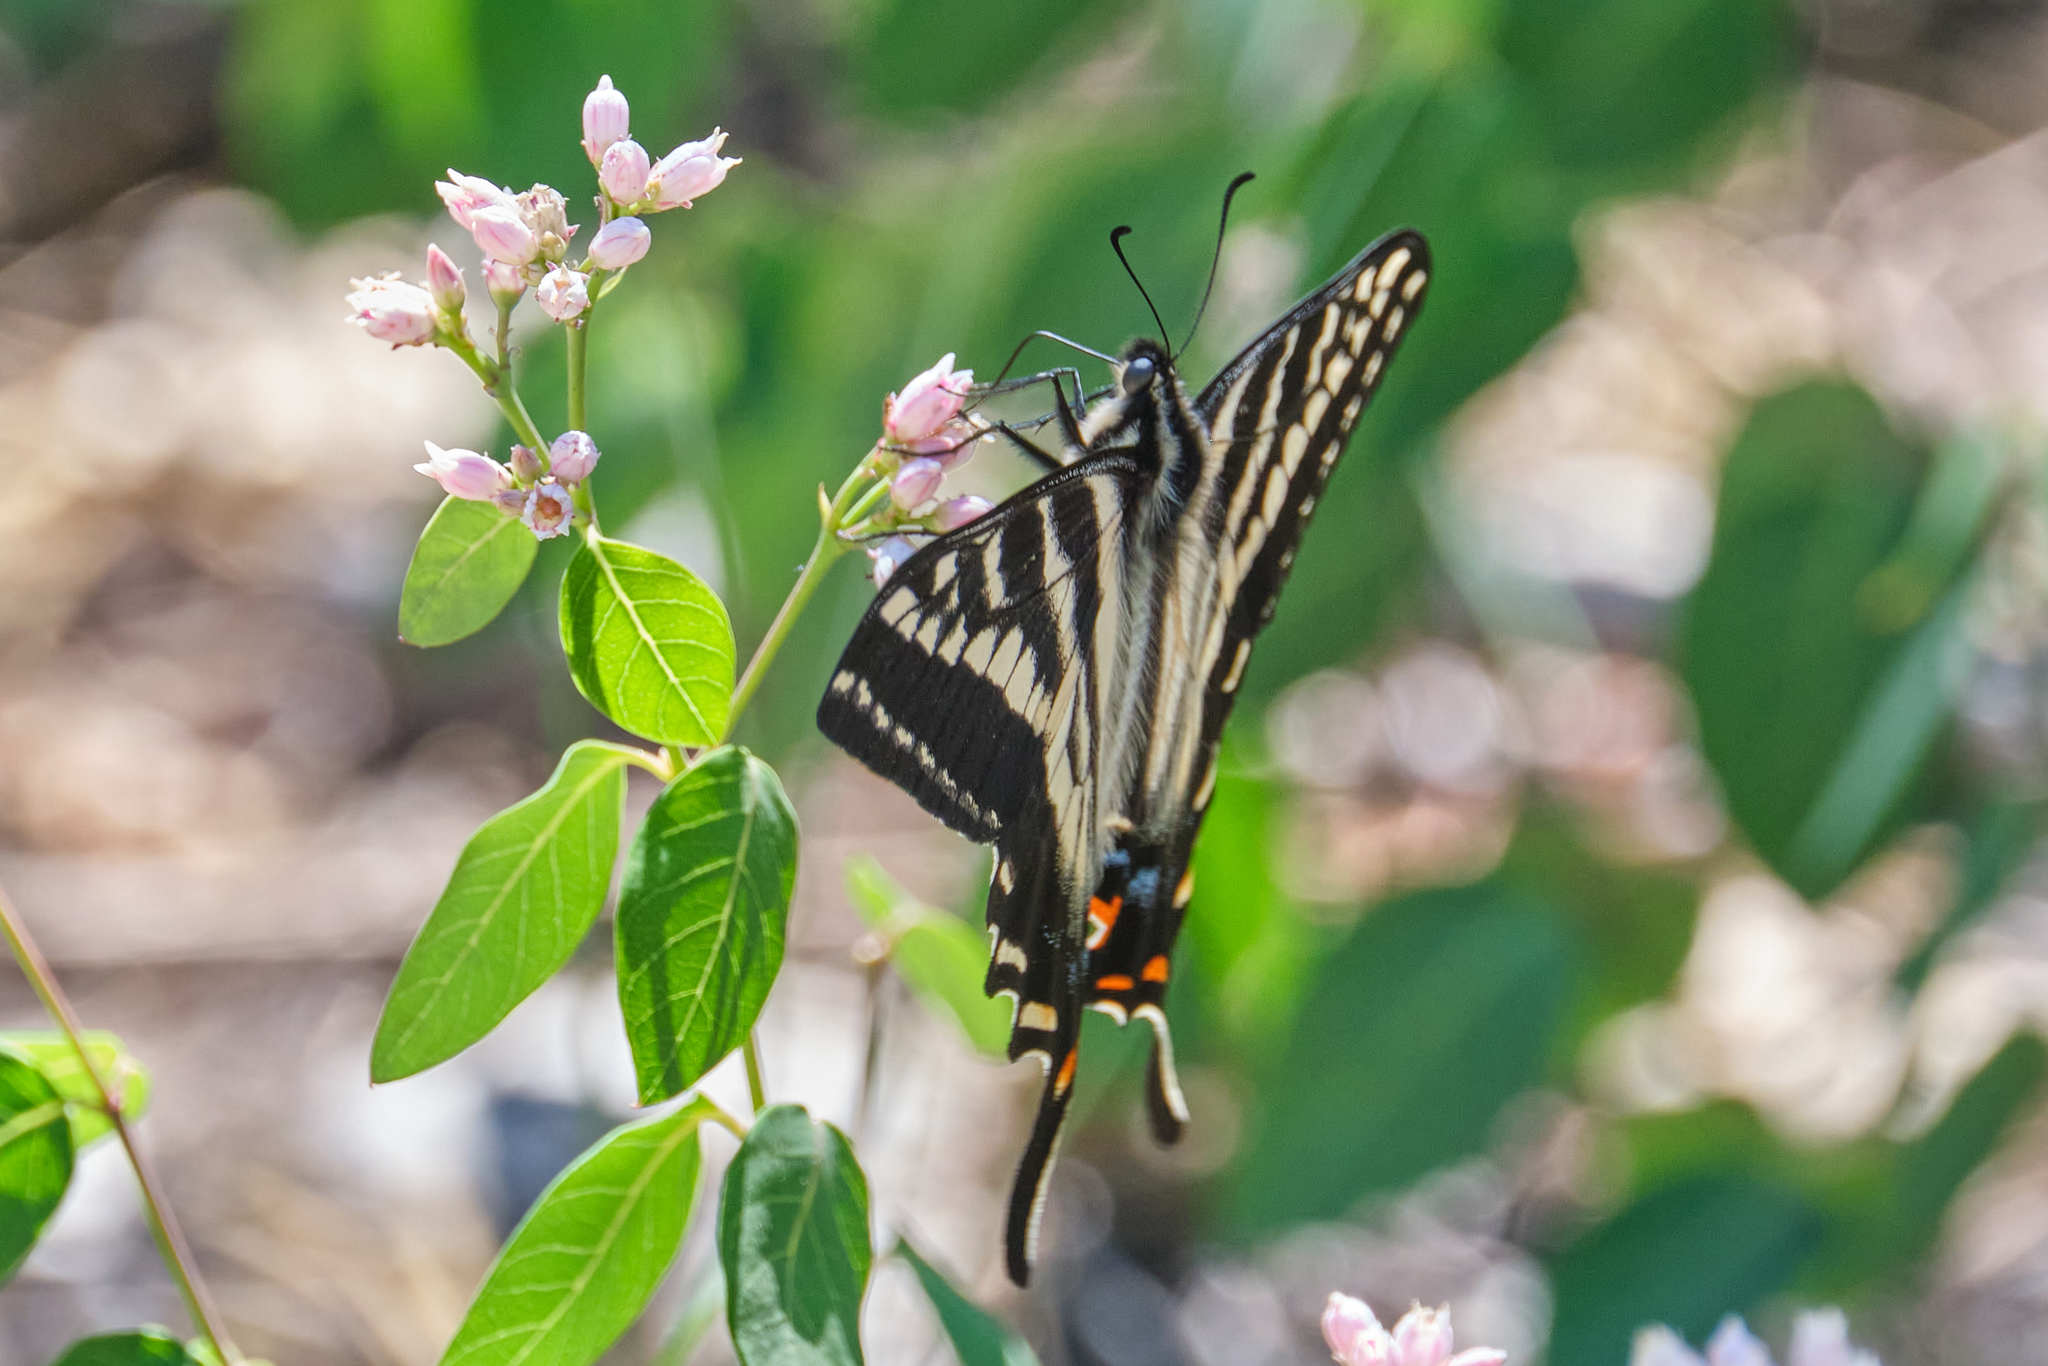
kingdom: Animalia
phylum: Arthropoda
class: Insecta
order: Lepidoptera
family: Papilionidae
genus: Papilio
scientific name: Papilio eurymedon
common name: Pale tiger swallowtail
